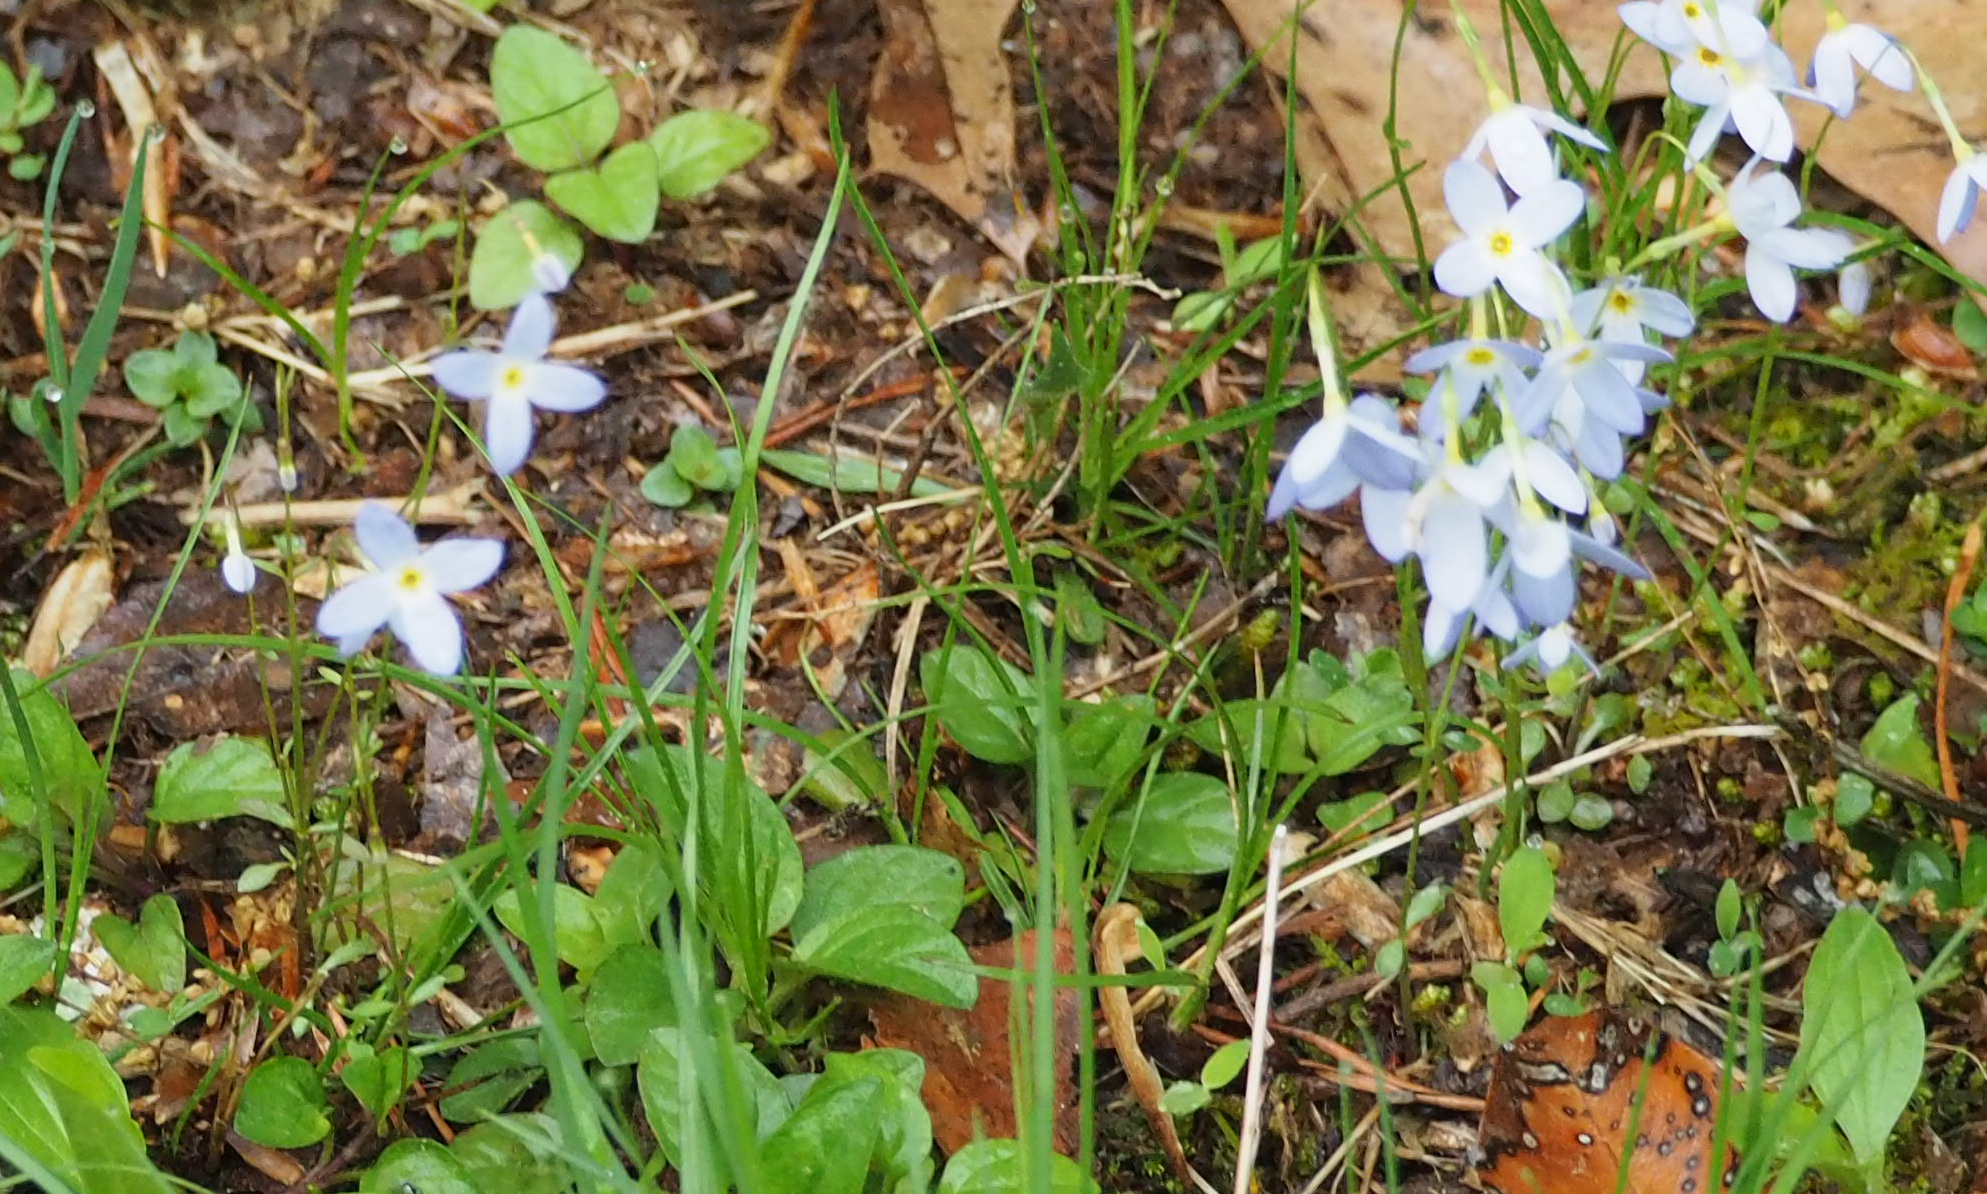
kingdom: Plantae
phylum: Tracheophyta
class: Magnoliopsida
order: Gentianales
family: Rubiaceae
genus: Houstonia
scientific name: Houstonia caerulea
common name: Bluets
